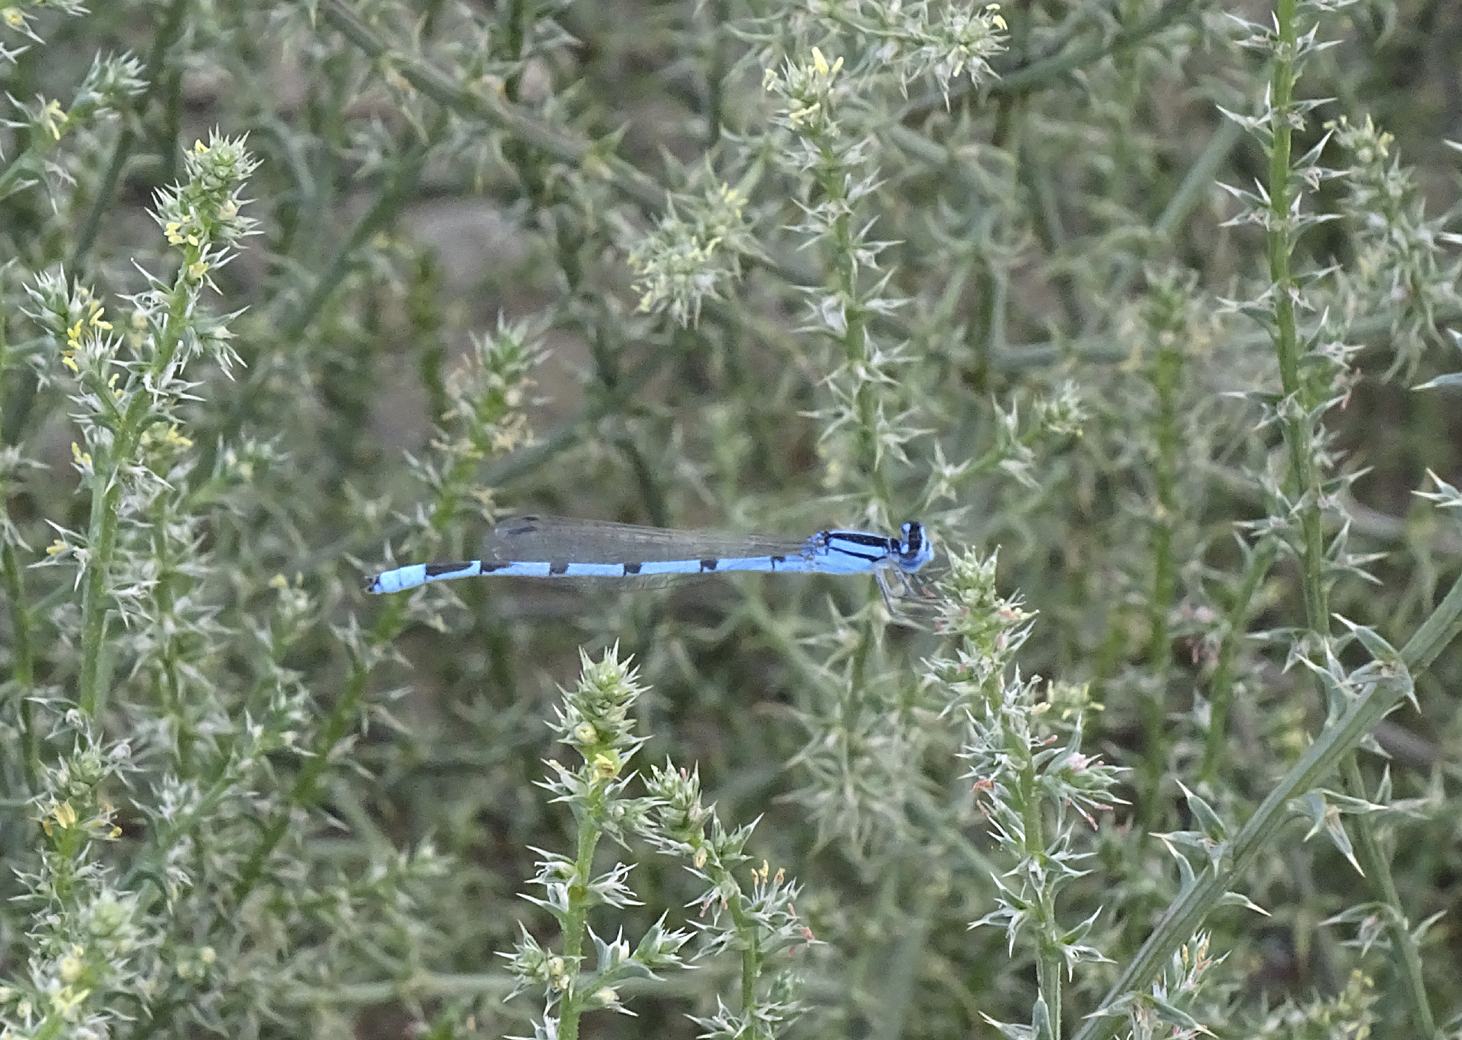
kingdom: Animalia
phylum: Arthropoda
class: Insecta
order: Odonata
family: Coenagrionidae
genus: Enallagma
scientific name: Enallagma civile
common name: Damselfly
